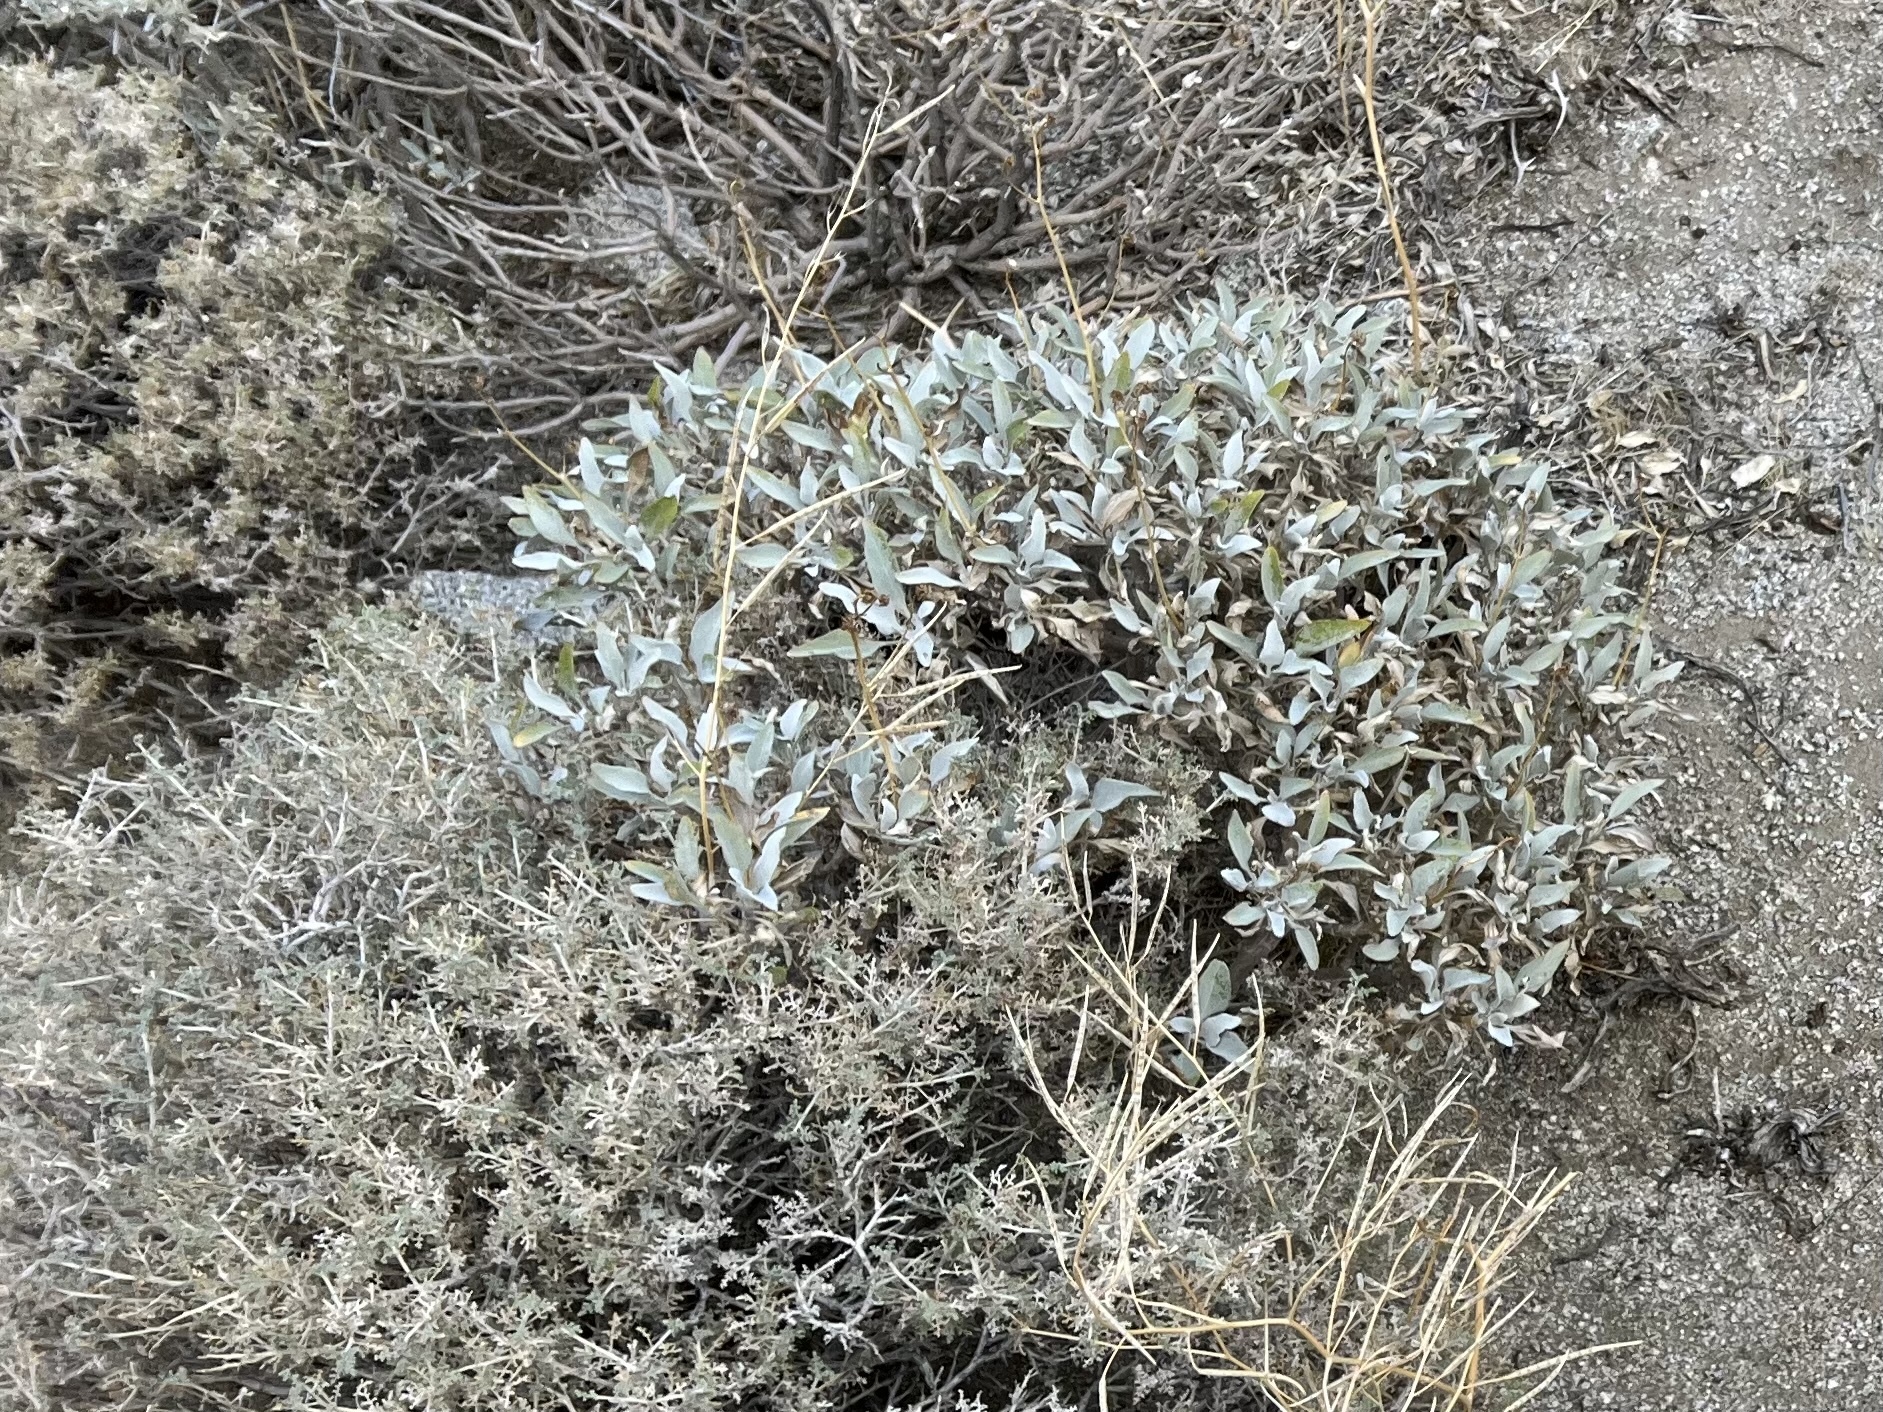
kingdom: Plantae
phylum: Tracheophyta
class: Magnoliopsida
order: Asterales
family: Asteraceae
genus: Encelia
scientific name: Encelia farinosa
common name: Brittlebush
